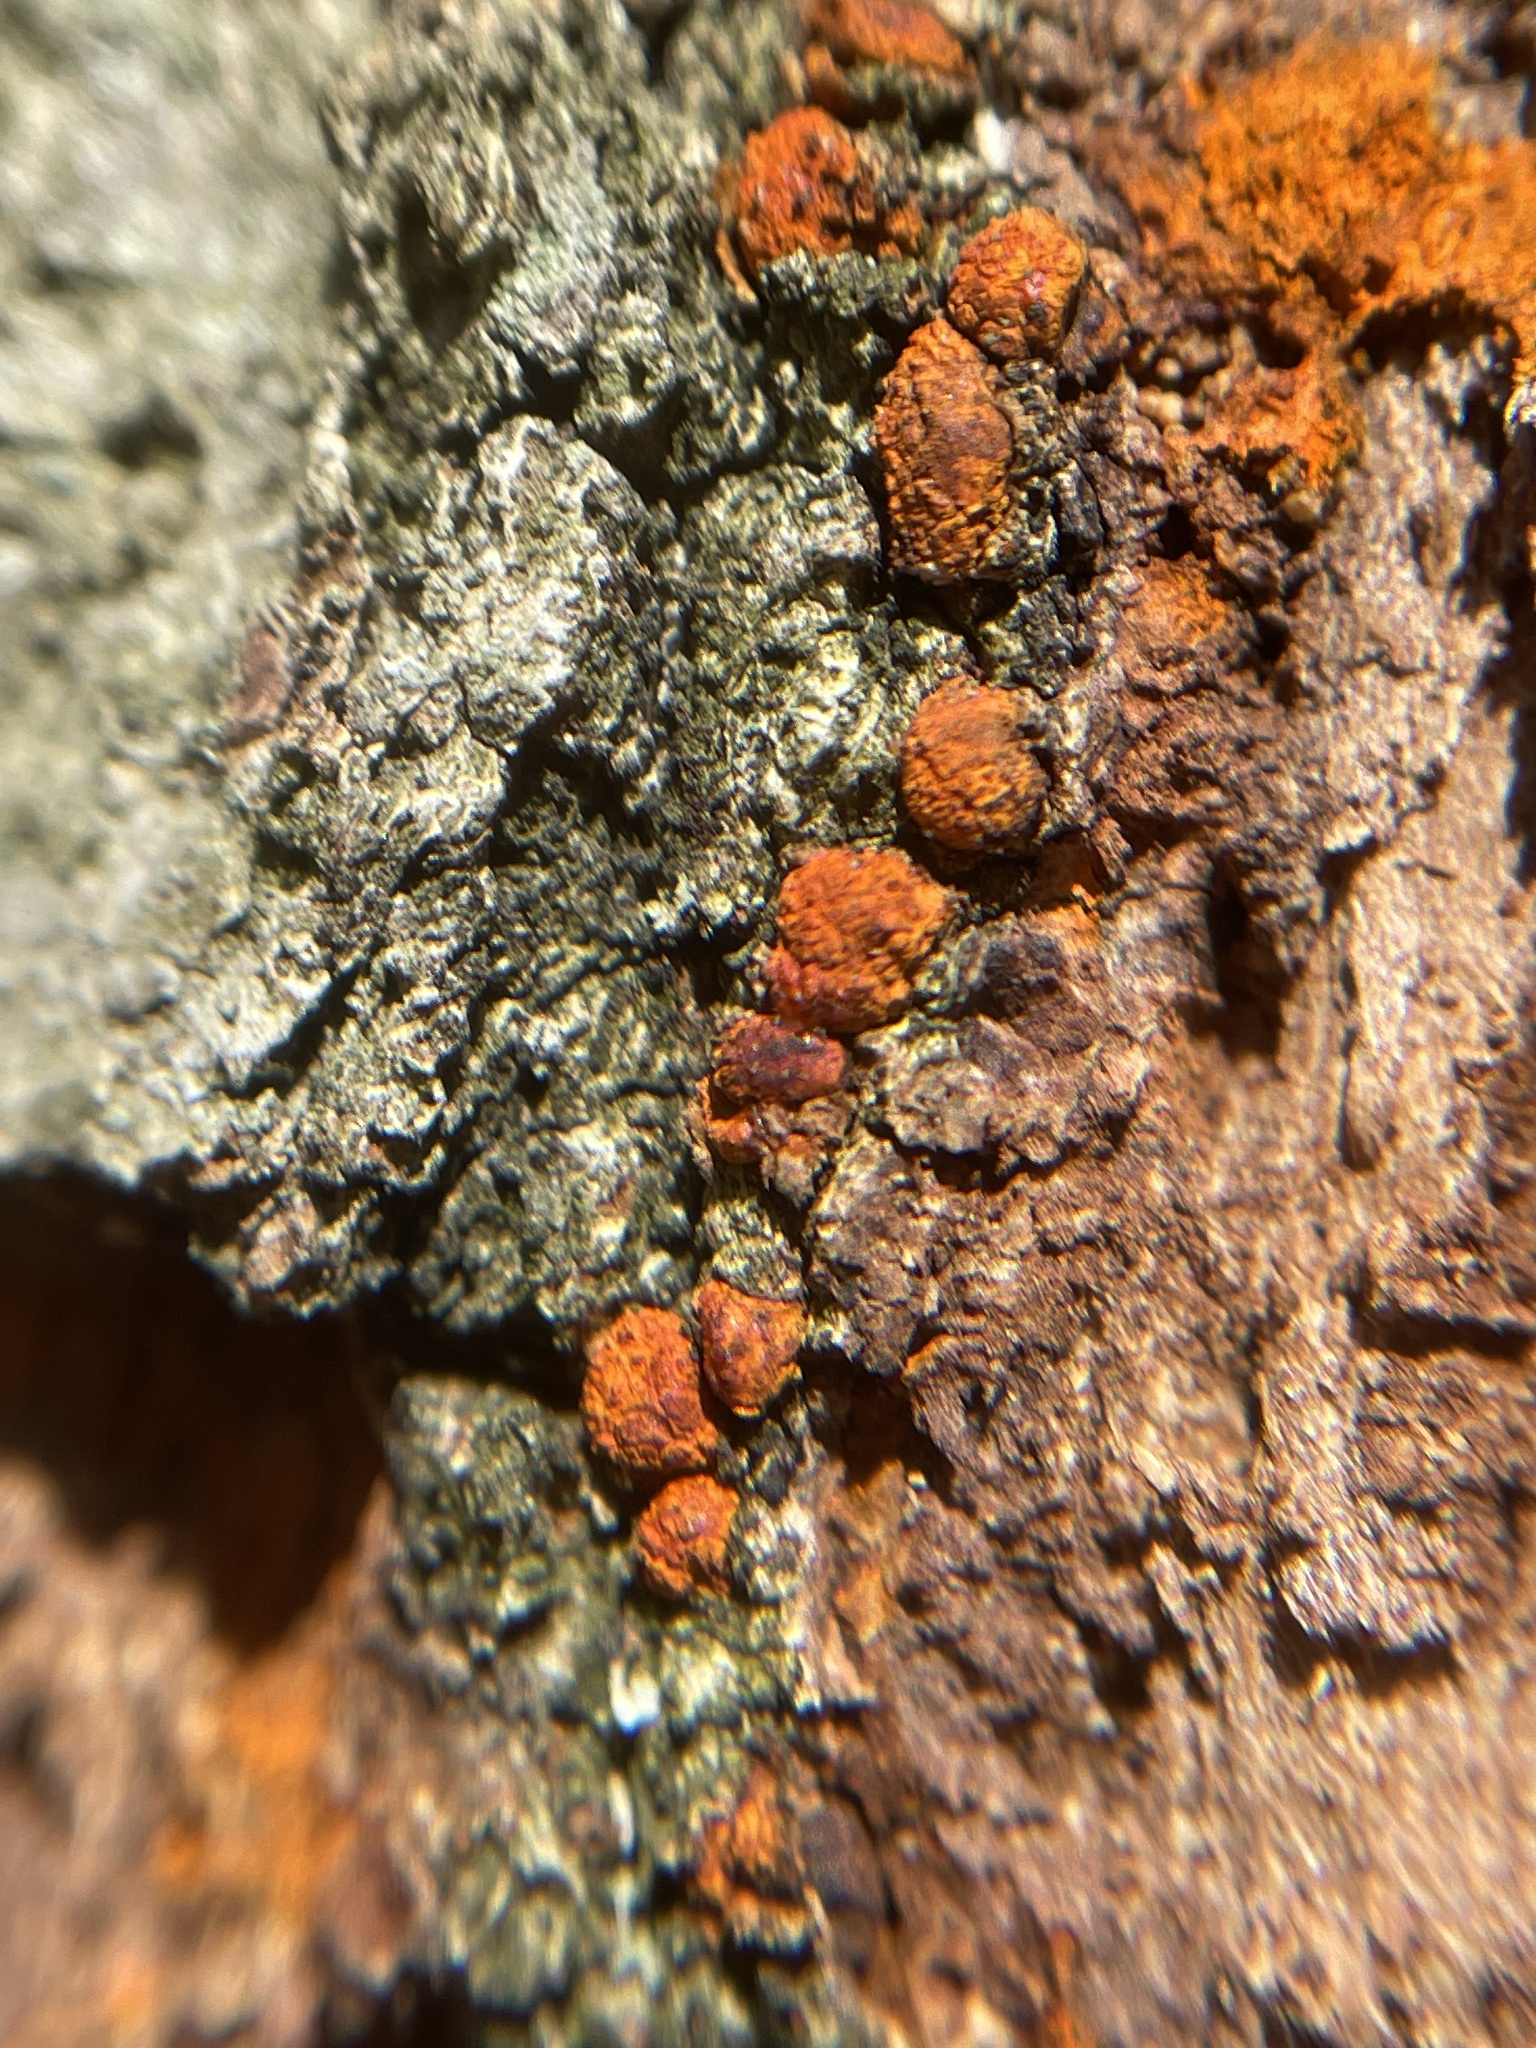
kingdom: Fungi
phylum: Ascomycota
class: Sordariomycetes
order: Diaporthales
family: Cryphonectriaceae
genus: Amphilogia
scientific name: Amphilogia gyrosa
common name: Orange hobnail canker
